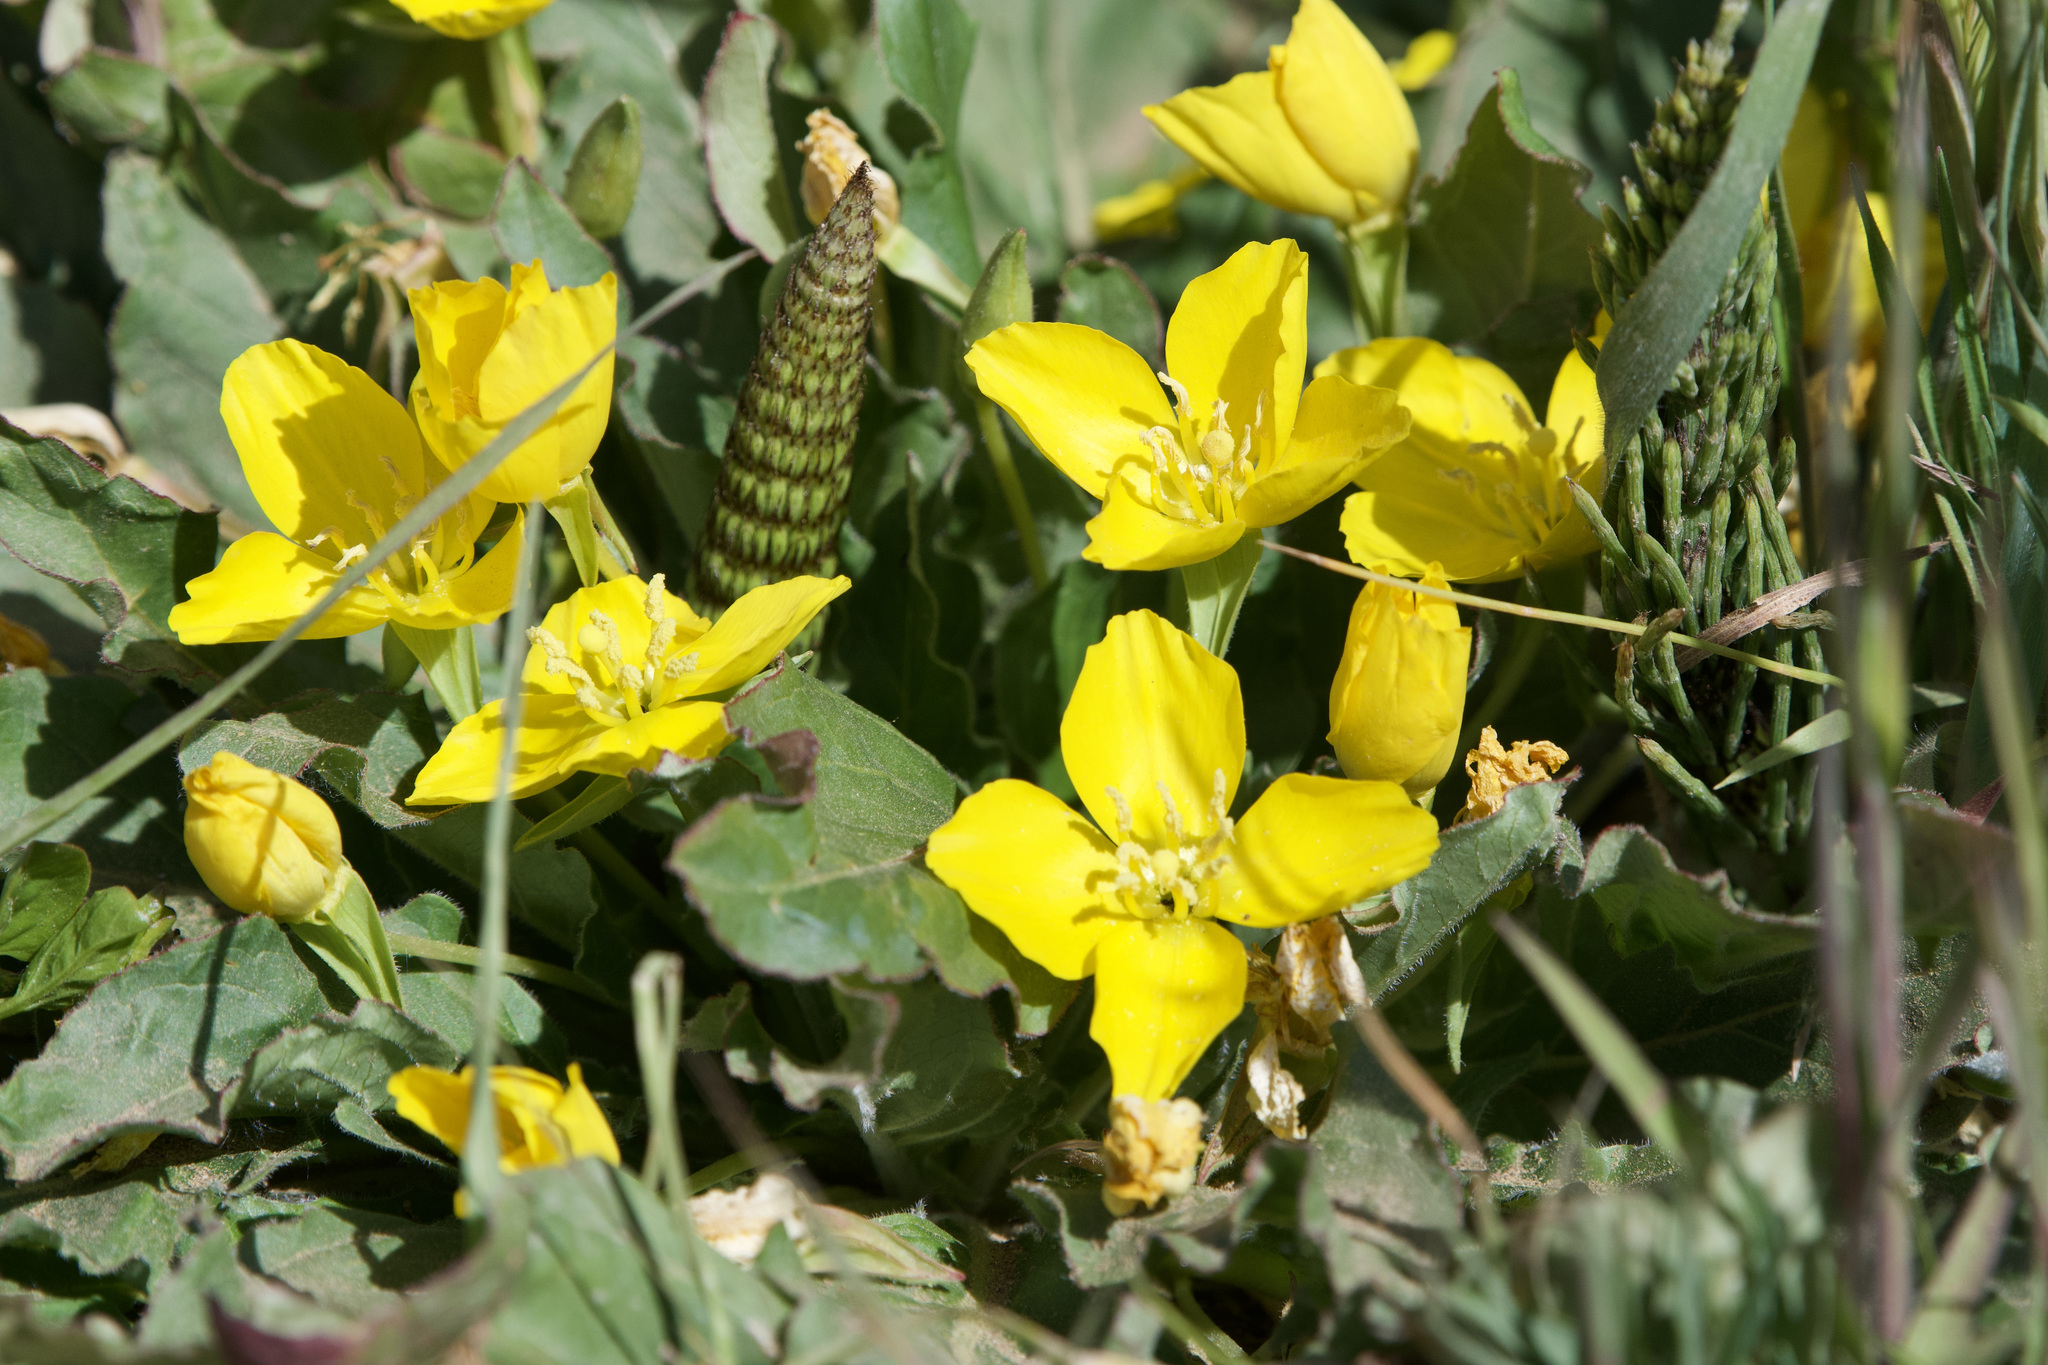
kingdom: Plantae
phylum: Tracheophyta
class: Magnoliopsida
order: Myrtales
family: Onagraceae
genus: Taraxia
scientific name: Taraxia ovata
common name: Goldeneggs
